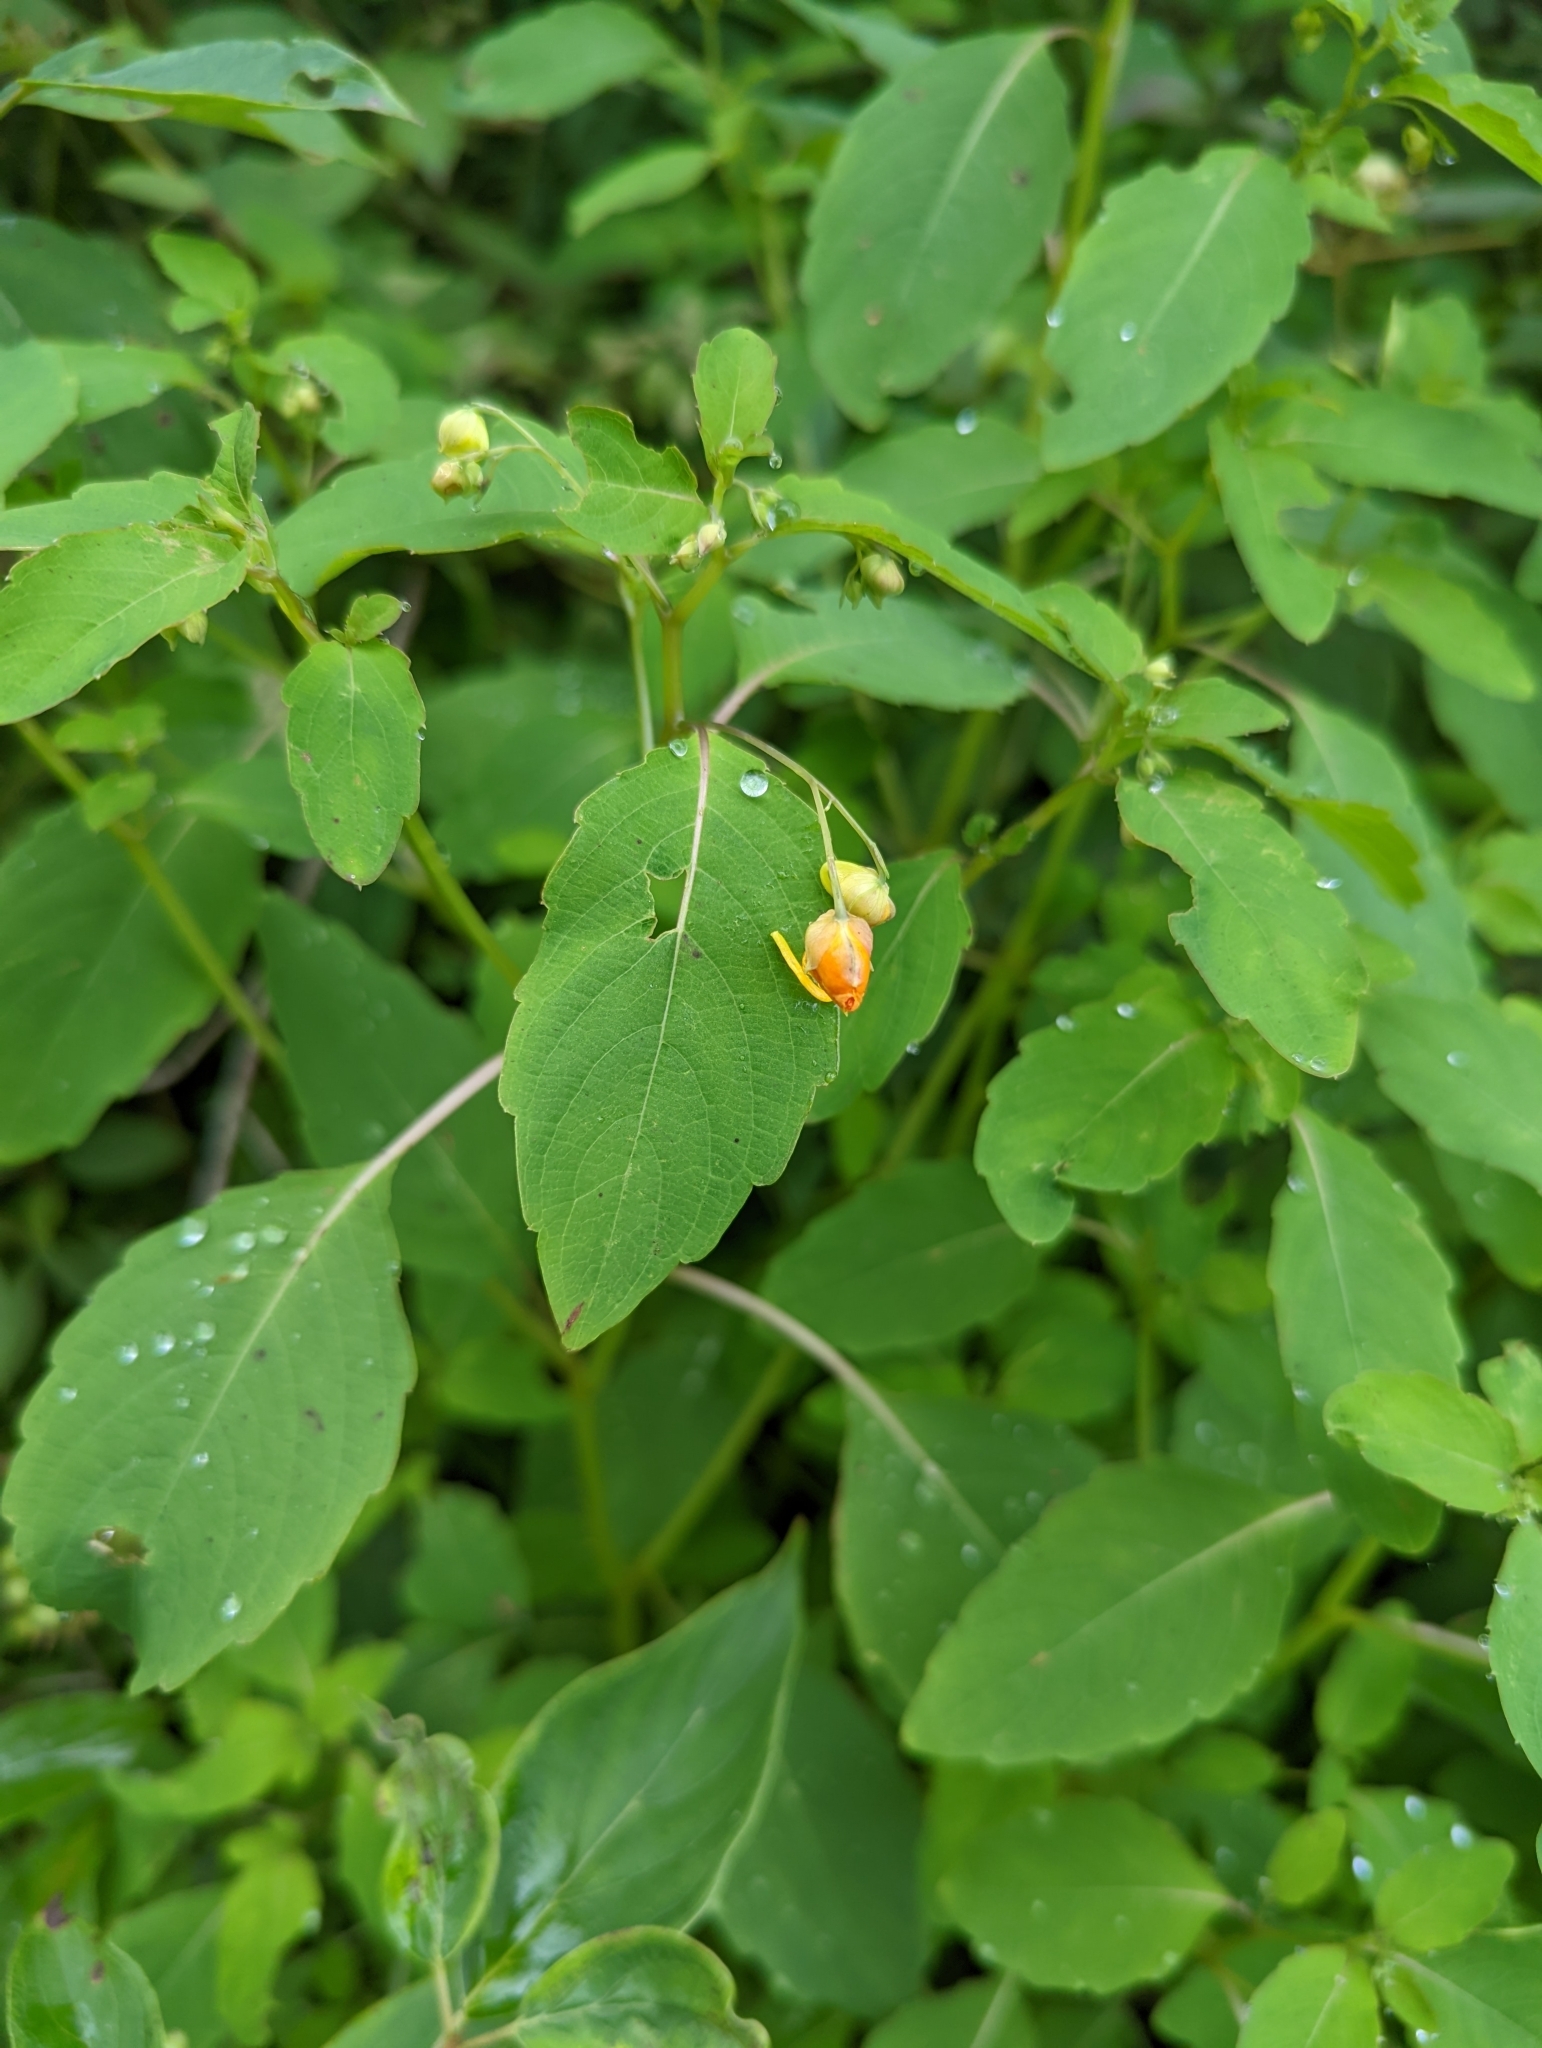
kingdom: Plantae
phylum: Tracheophyta
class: Magnoliopsida
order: Ericales
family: Balsaminaceae
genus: Impatiens
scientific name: Impatiens capensis
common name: Orange balsam
